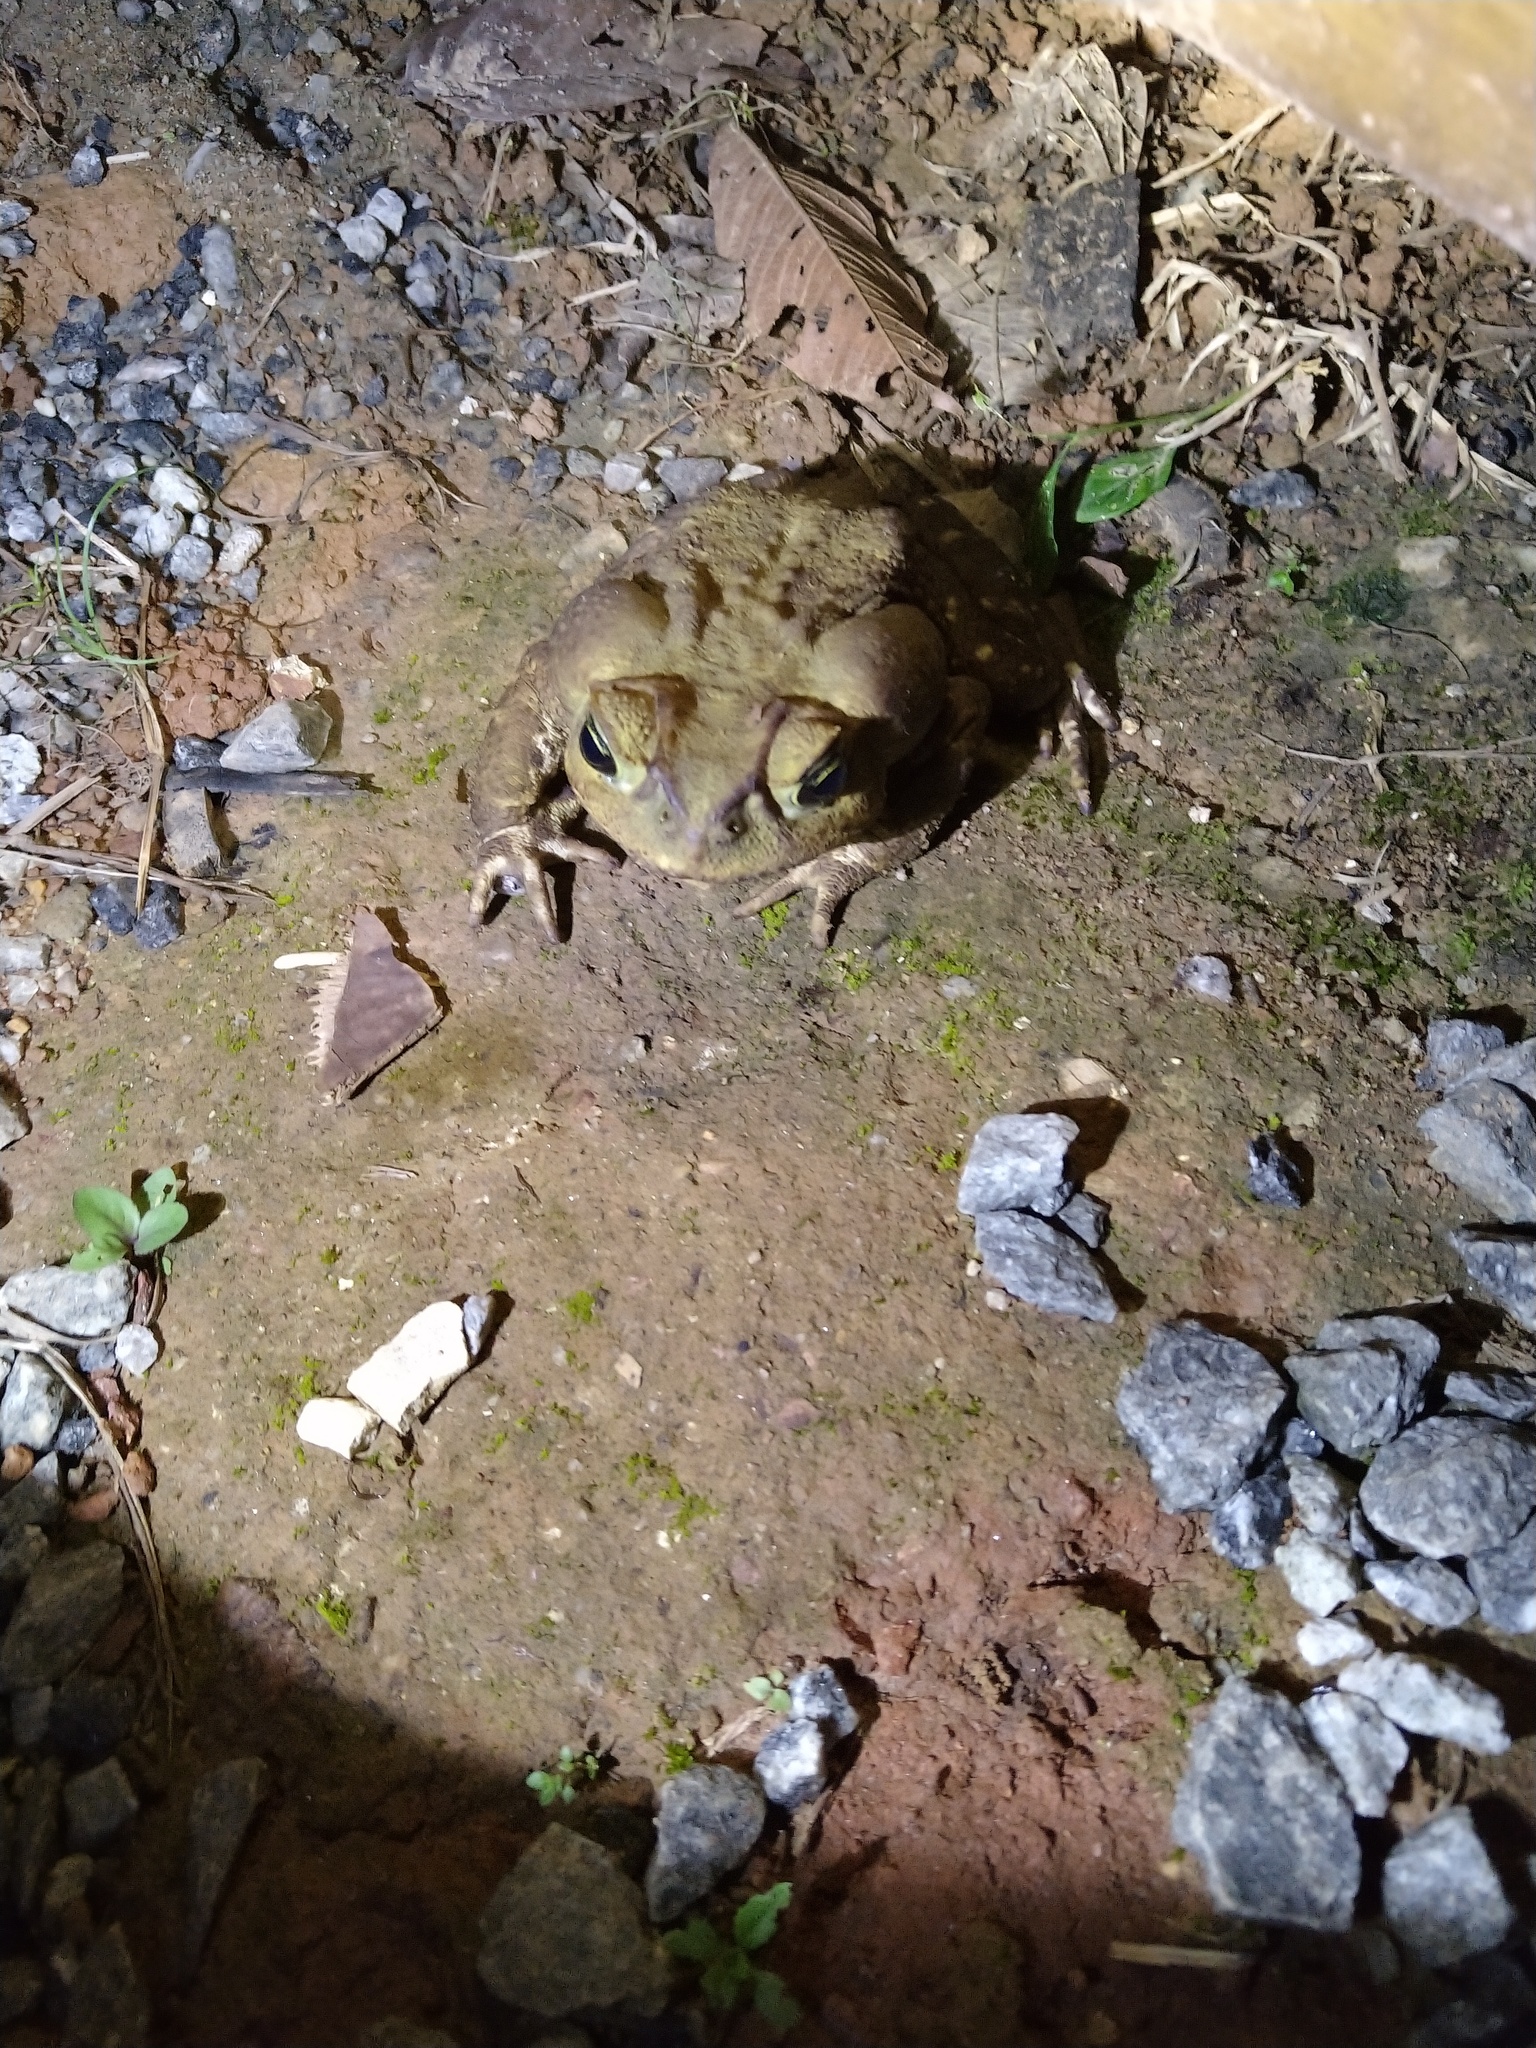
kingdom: Animalia
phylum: Chordata
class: Amphibia
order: Anura
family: Bufonidae
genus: Rhinella
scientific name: Rhinella icterica
